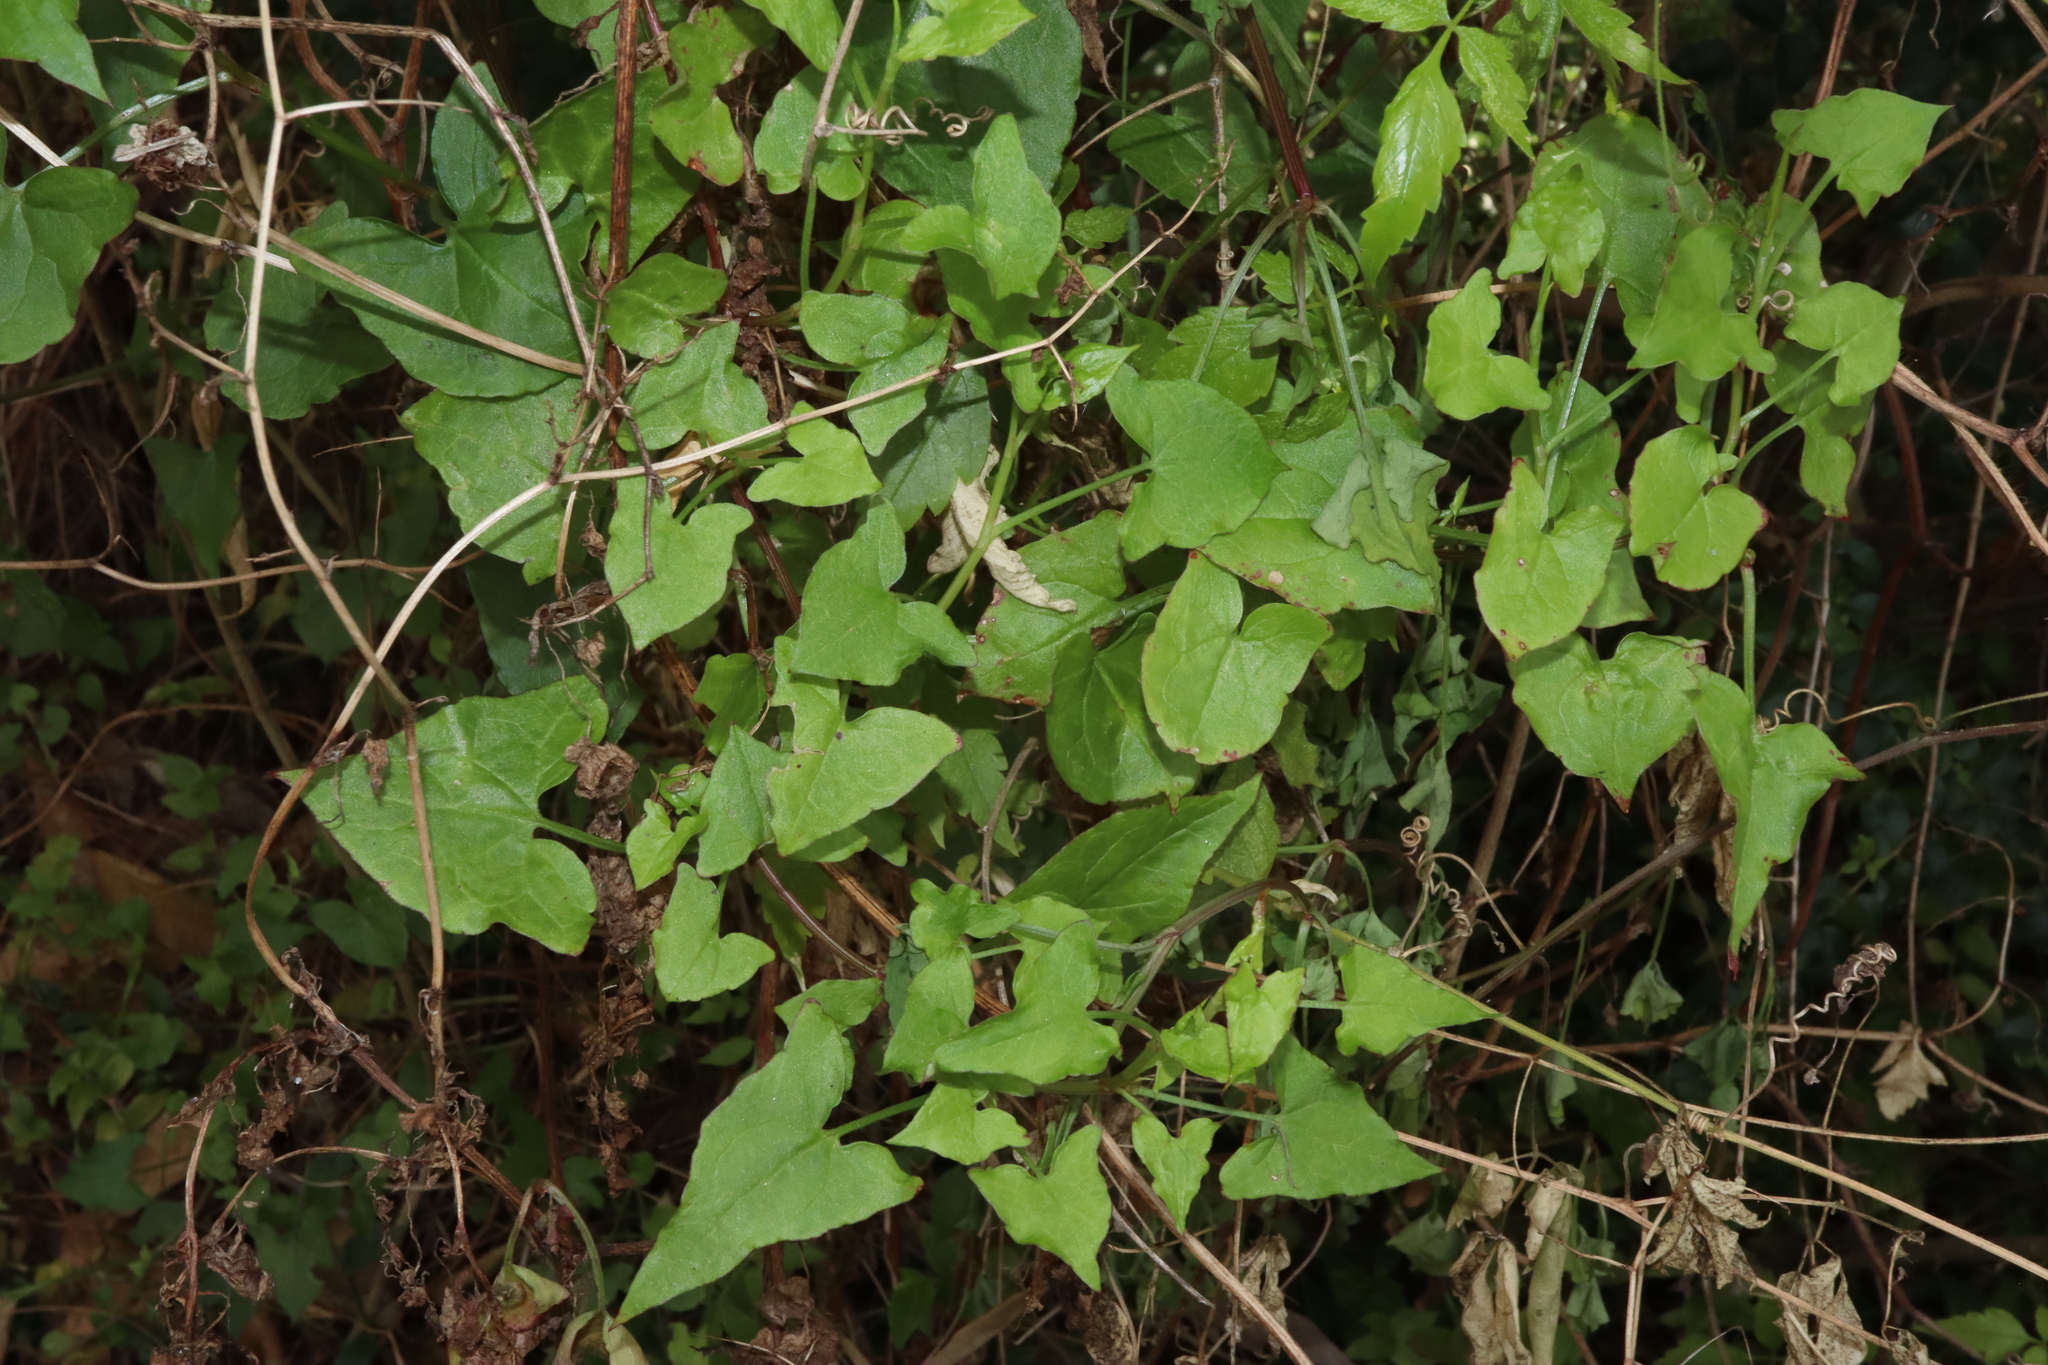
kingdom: Plantae
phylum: Tracheophyta
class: Magnoliopsida
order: Caryophyllales
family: Polygonaceae
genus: Rumex
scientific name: Rumex sagittatus
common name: Climbing dock
